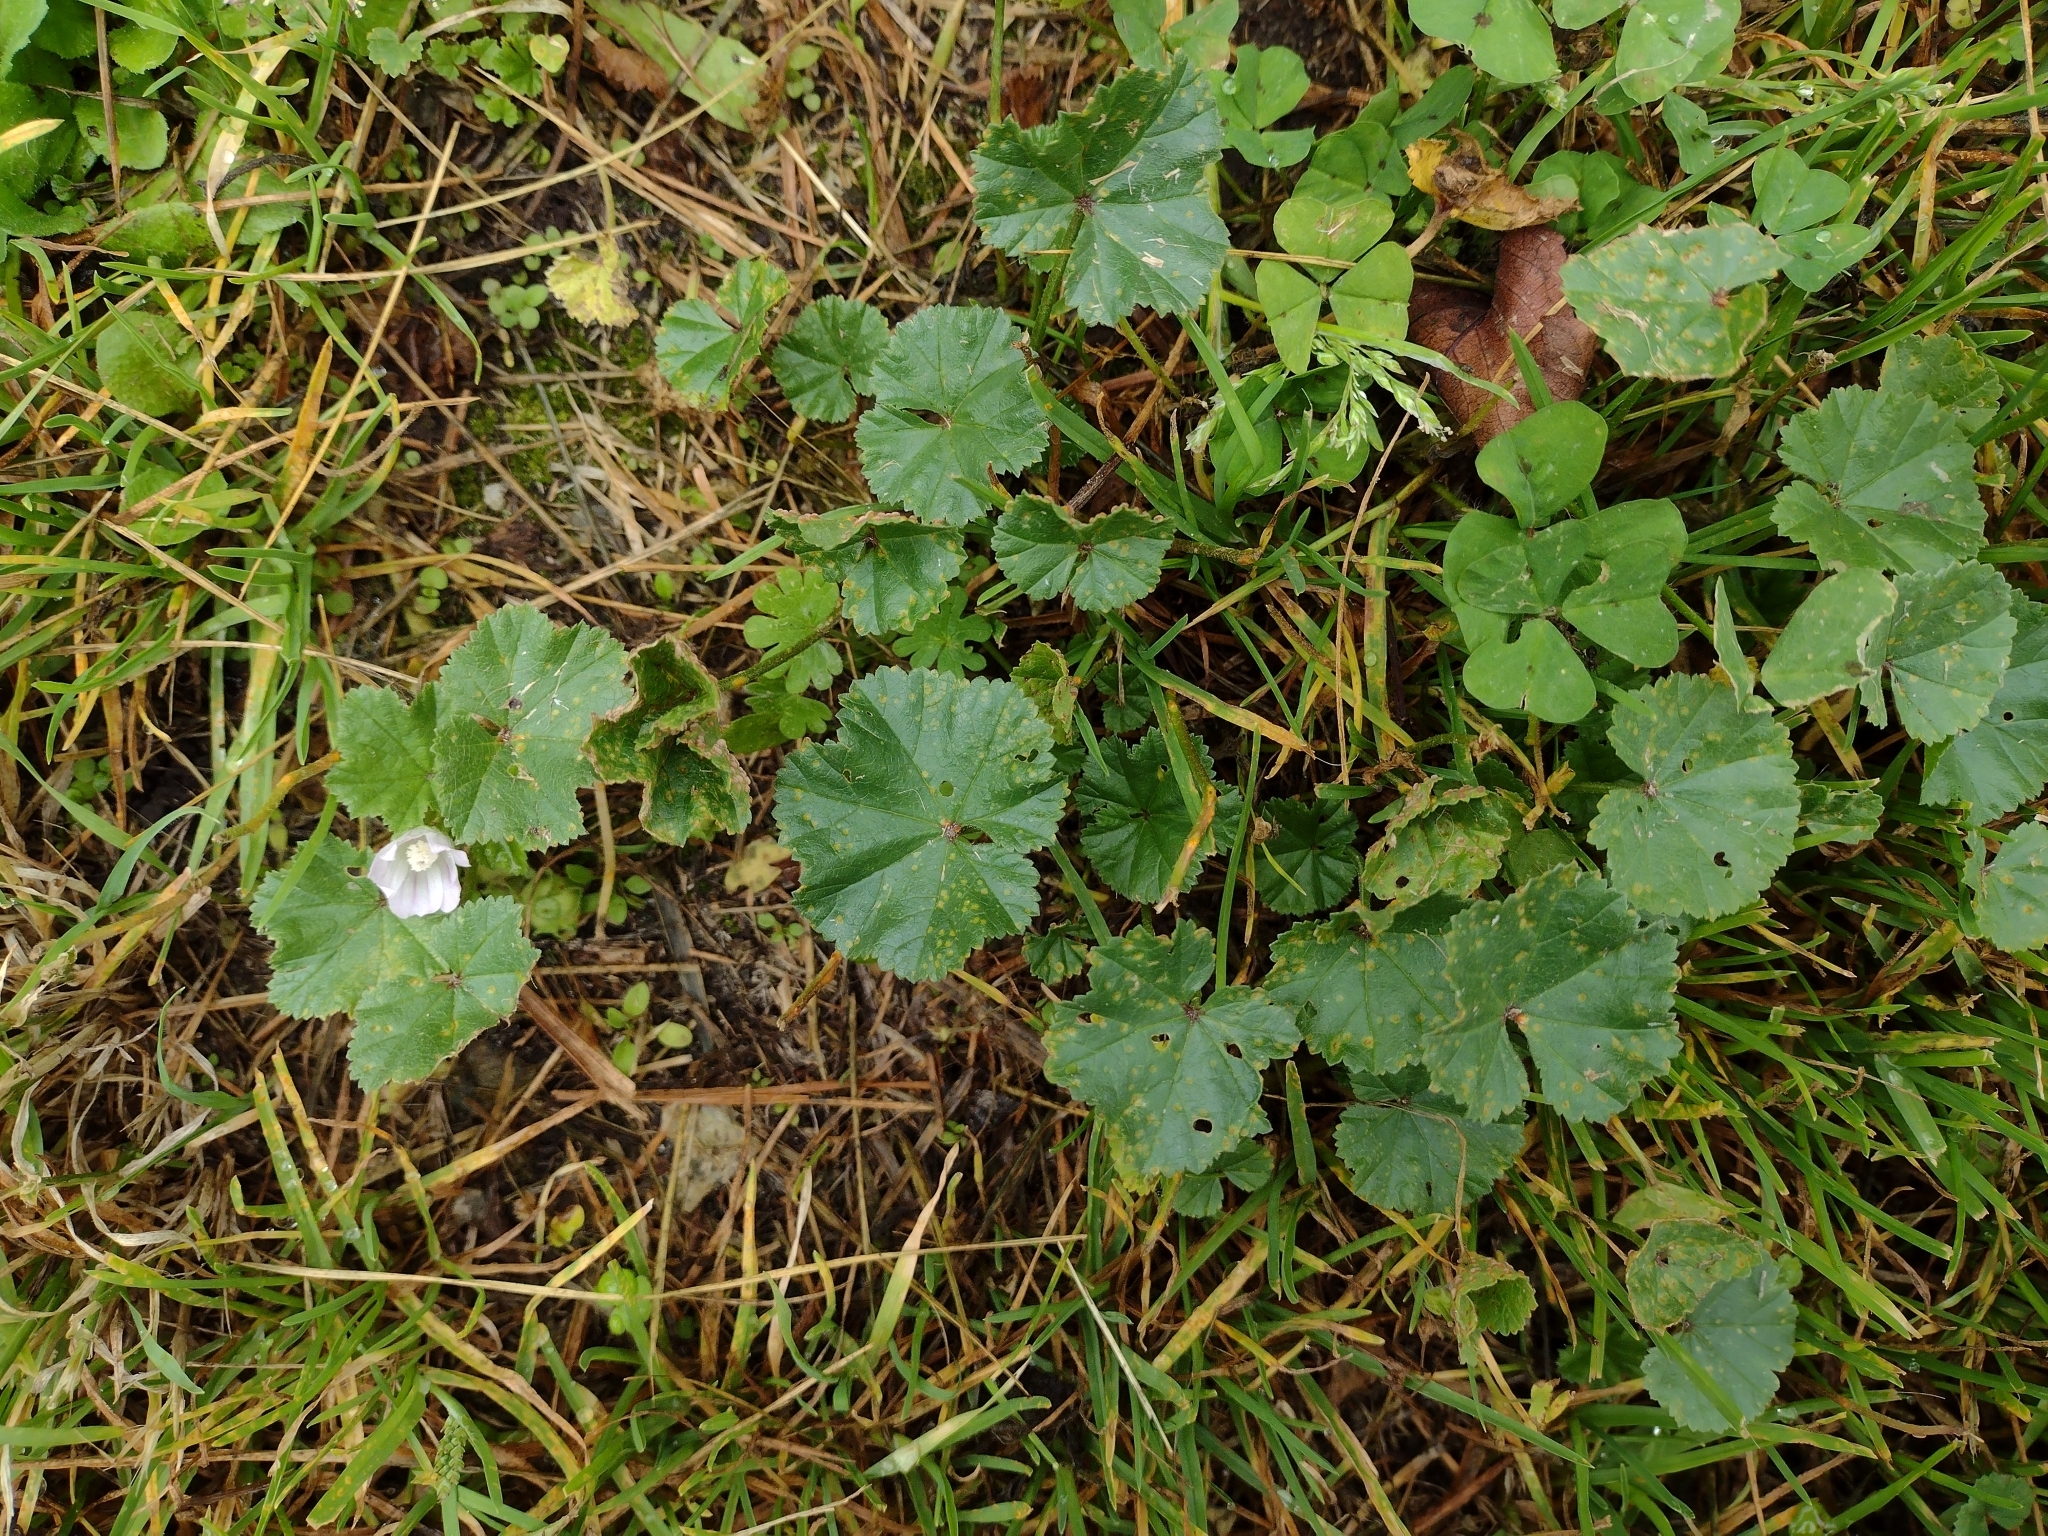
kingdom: Plantae
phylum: Tracheophyta
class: Magnoliopsida
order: Malvales
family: Malvaceae
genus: Malva
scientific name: Malva neglecta
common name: Common mallow
